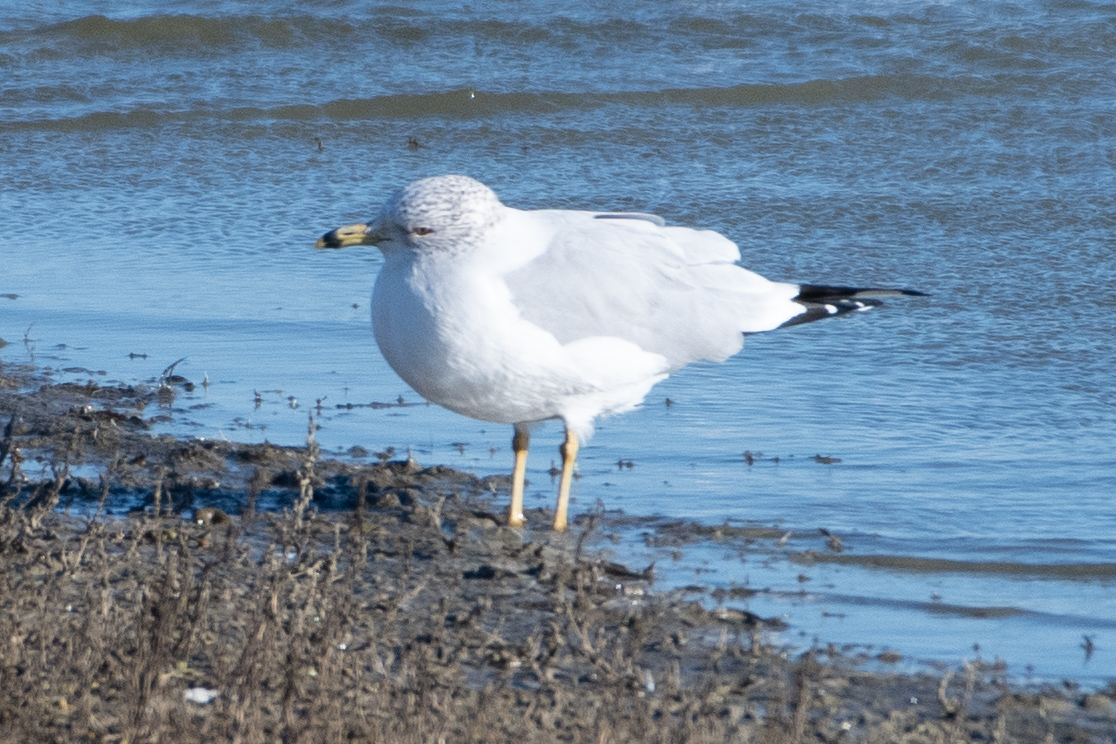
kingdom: Animalia
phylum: Chordata
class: Aves
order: Charadriiformes
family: Laridae
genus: Larus
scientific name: Larus delawarensis
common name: Ring-billed gull
